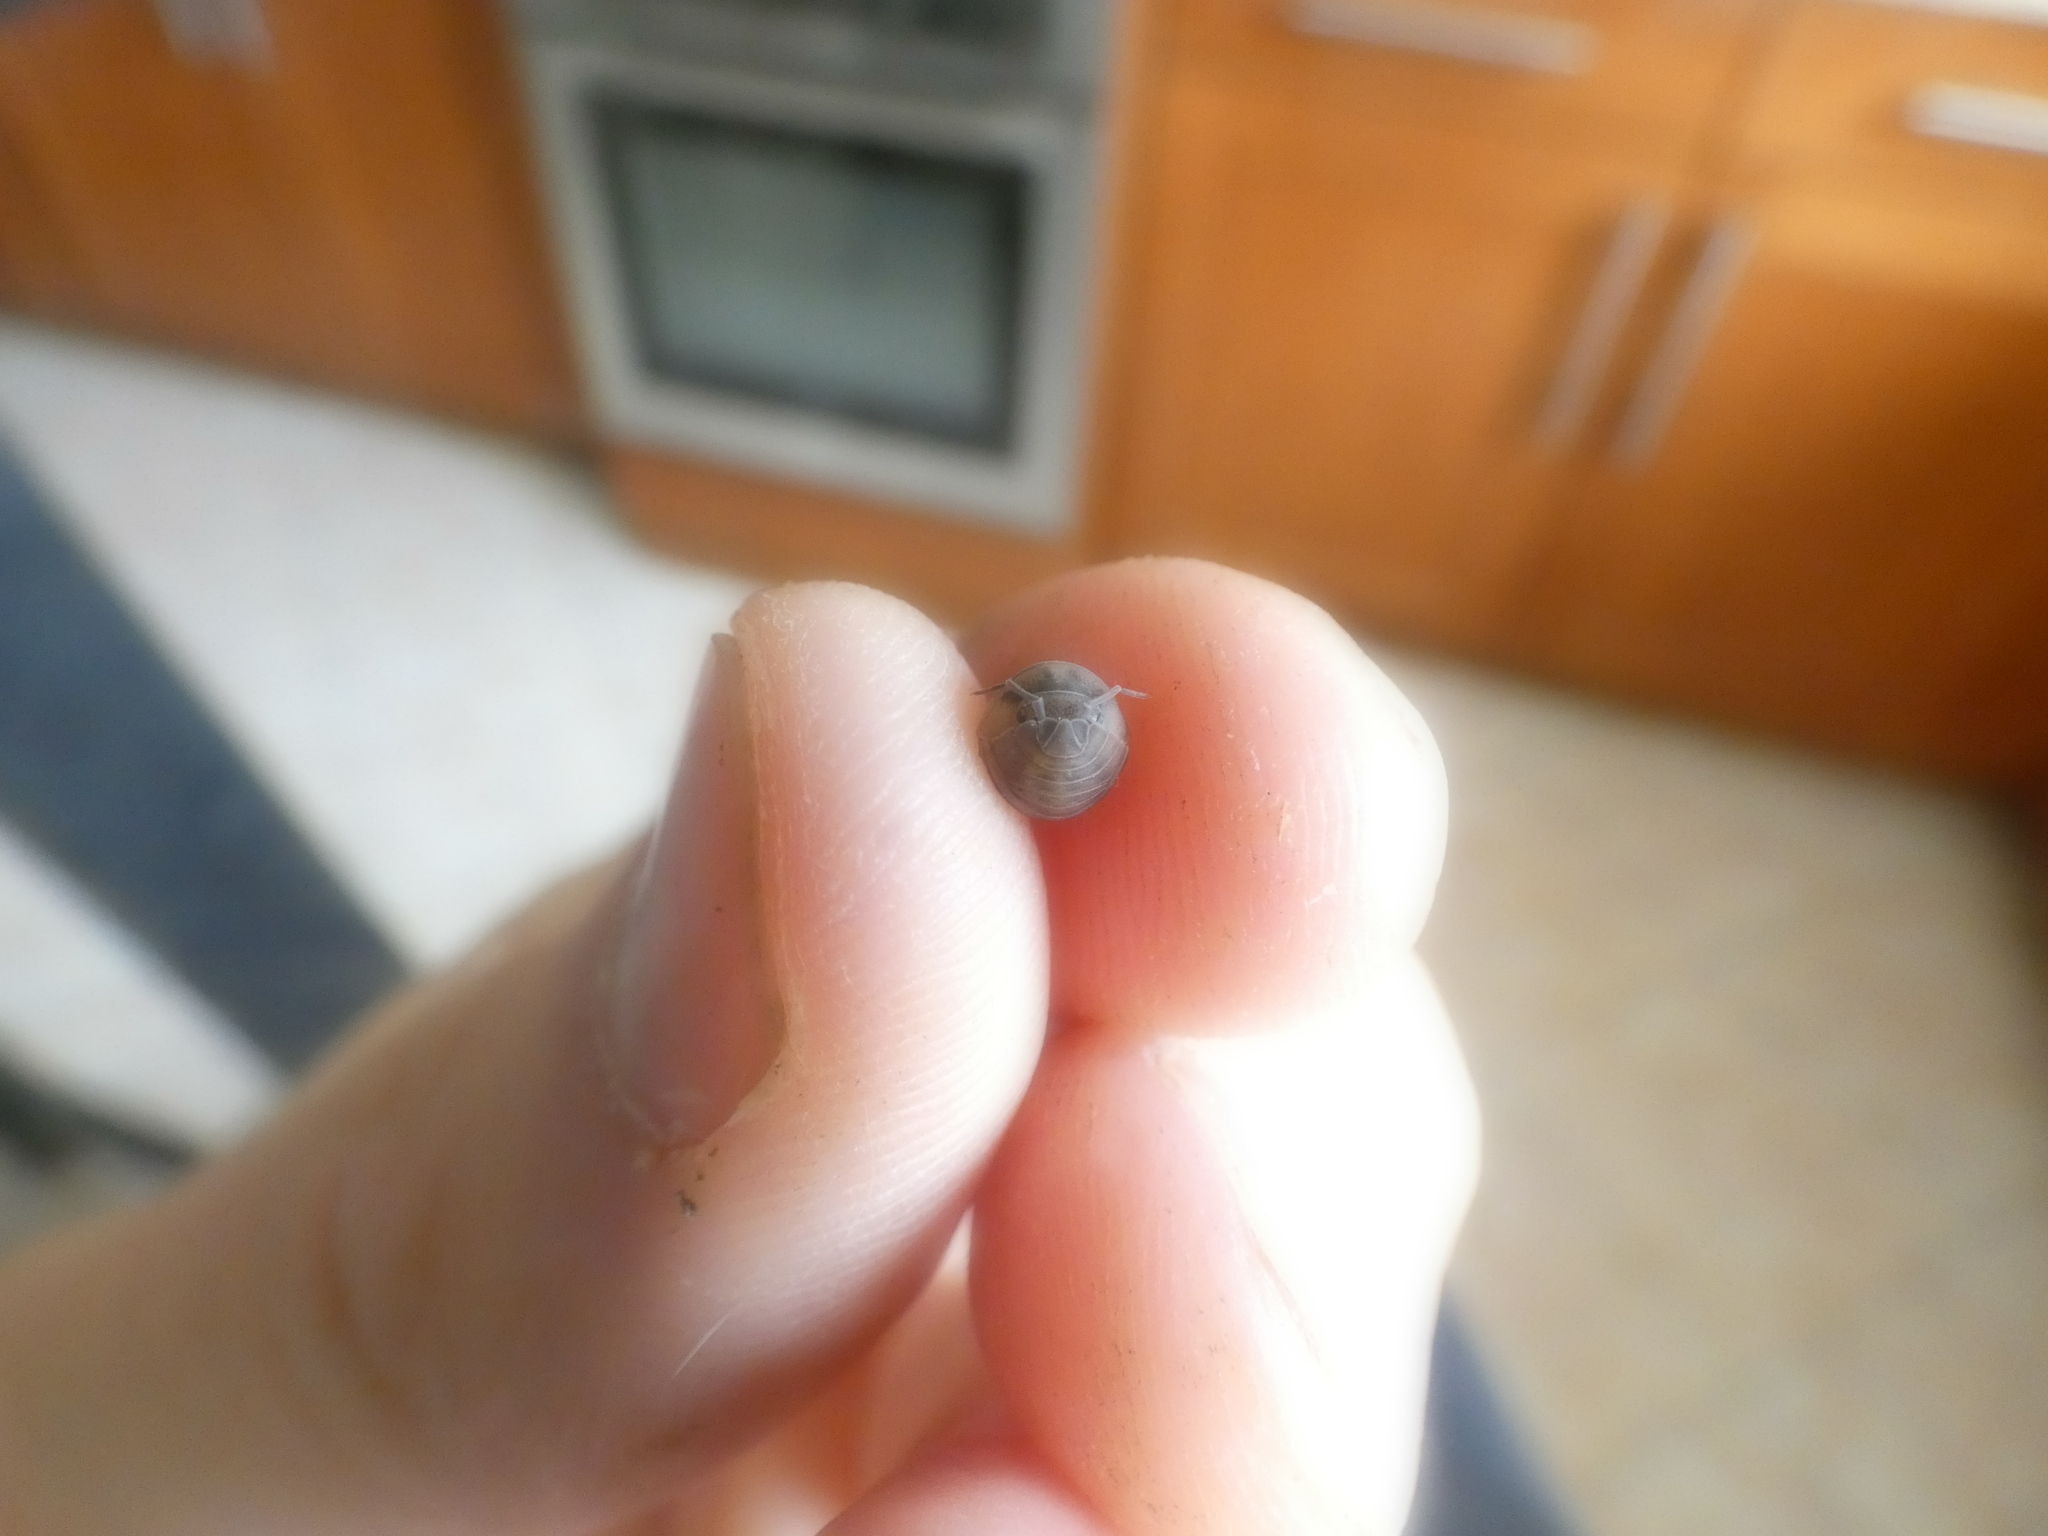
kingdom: Animalia
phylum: Arthropoda
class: Malacostraca
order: Isopoda
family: Armadillidiidae
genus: Armadillidium
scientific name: Armadillidium nasatum
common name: Isopod
